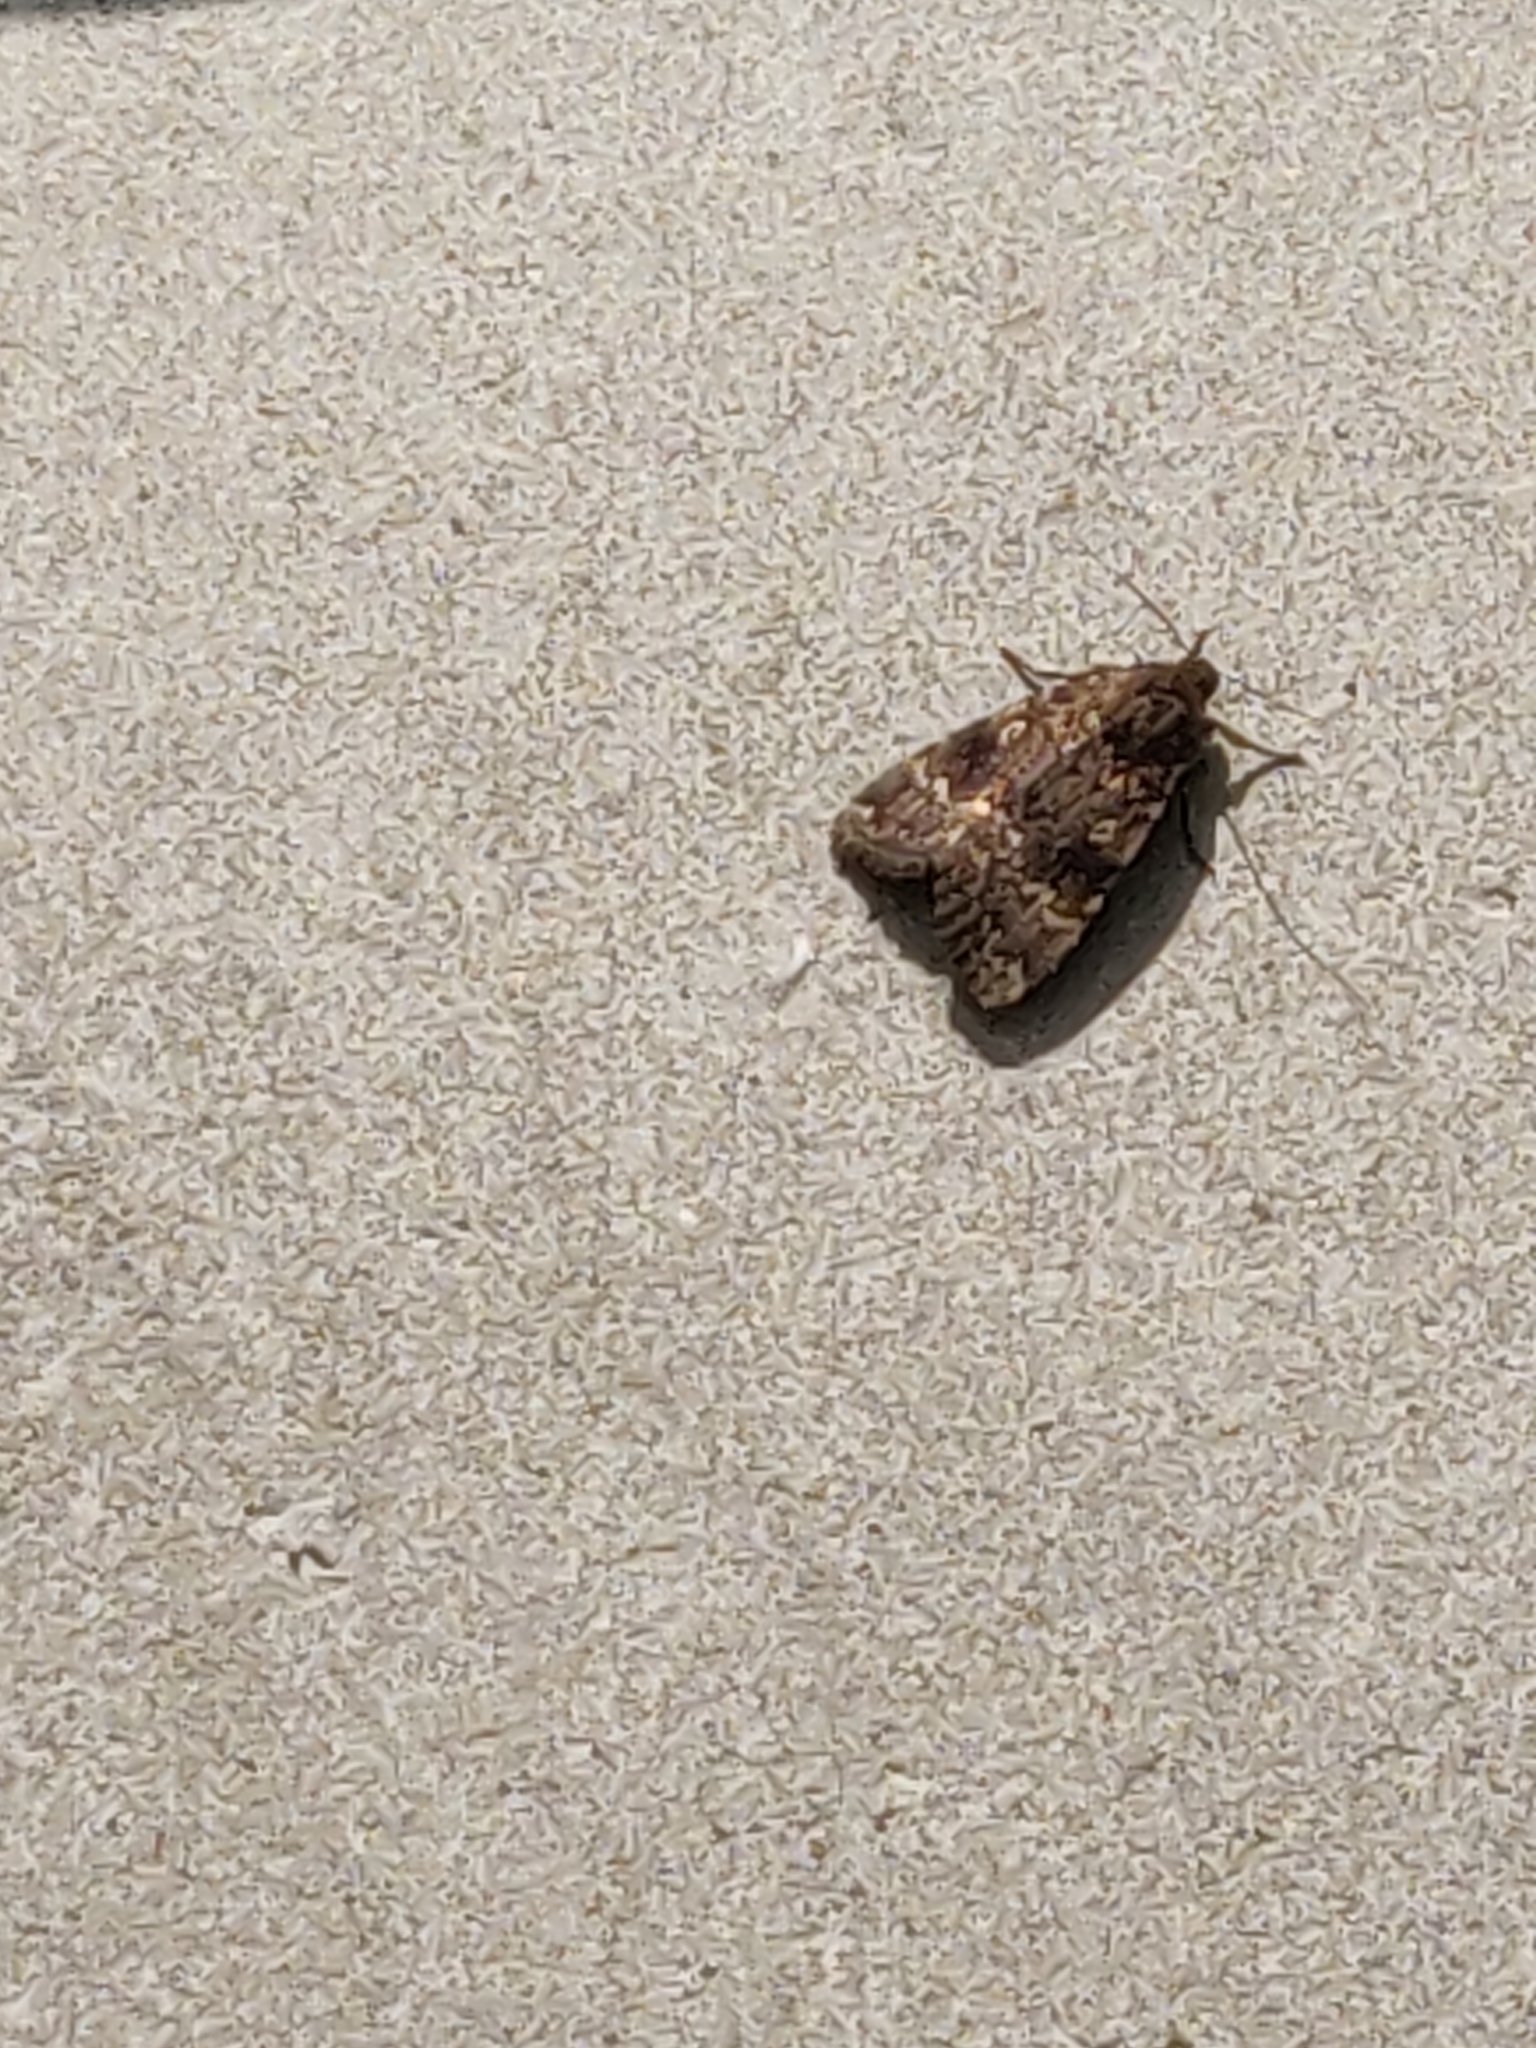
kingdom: Animalia
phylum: Arthropoda
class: Insecta
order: Lepidoptera
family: Noctuidae
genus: Amphipyra
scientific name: Amphipyra berbera
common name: Svensson's copper underwing
